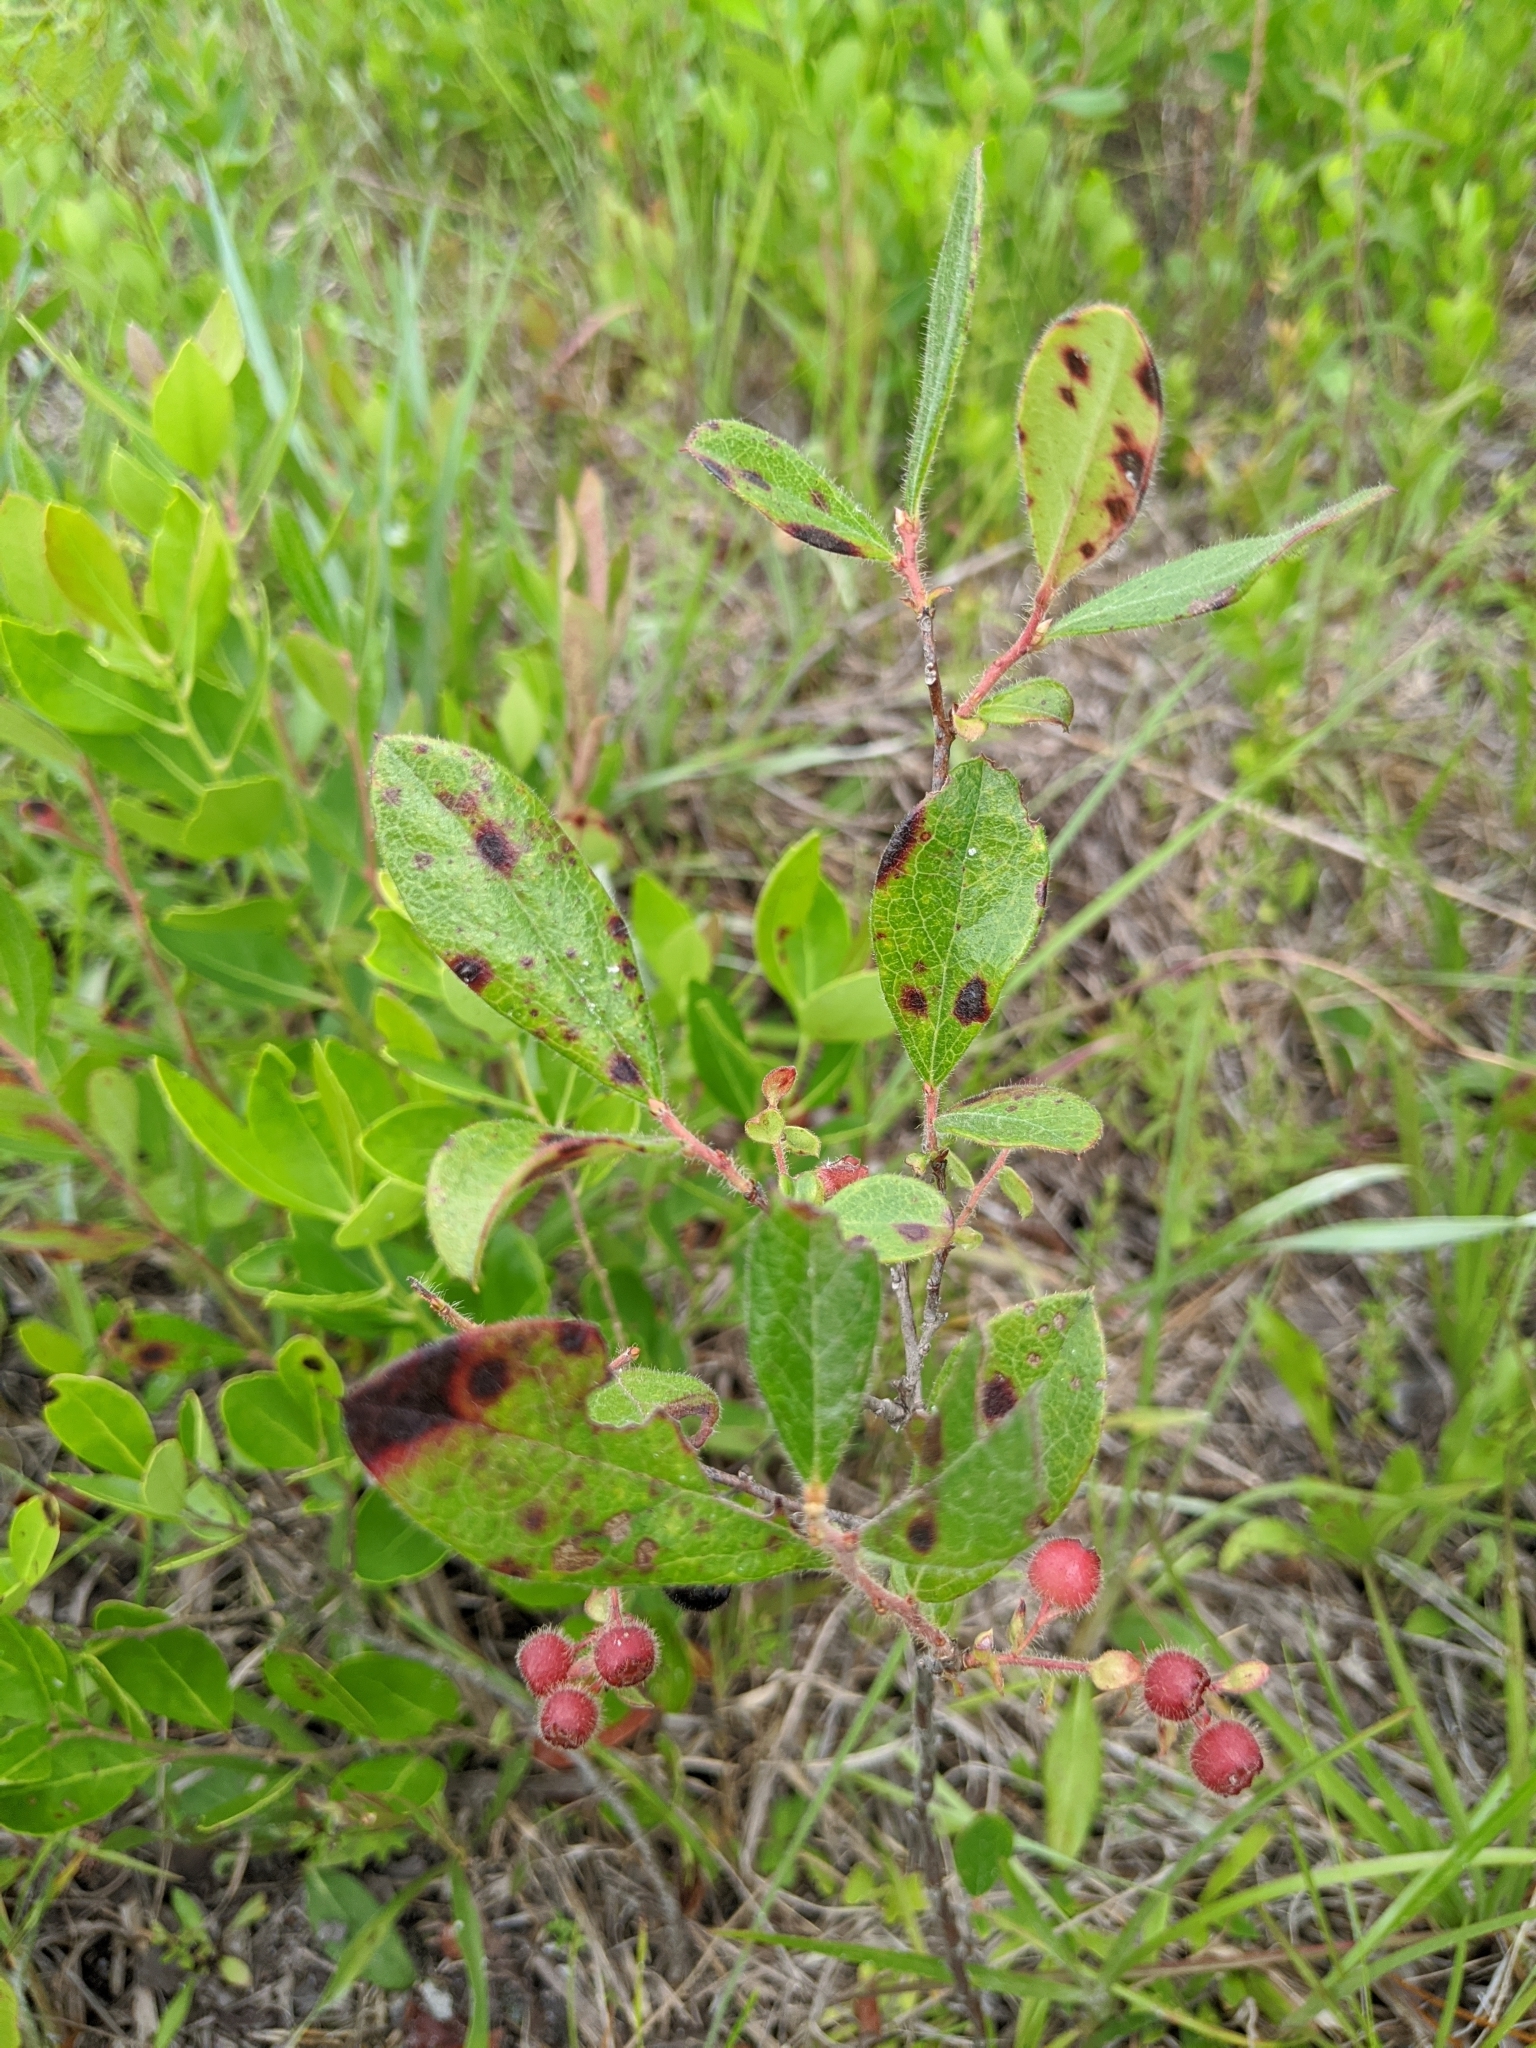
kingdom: Plantae
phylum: Tracheophyta
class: Magnoliopsida
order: Ericales
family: Ericaceae
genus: Gaylussacia
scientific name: Gaylussacia mosieri
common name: Hirsute huckleberry
